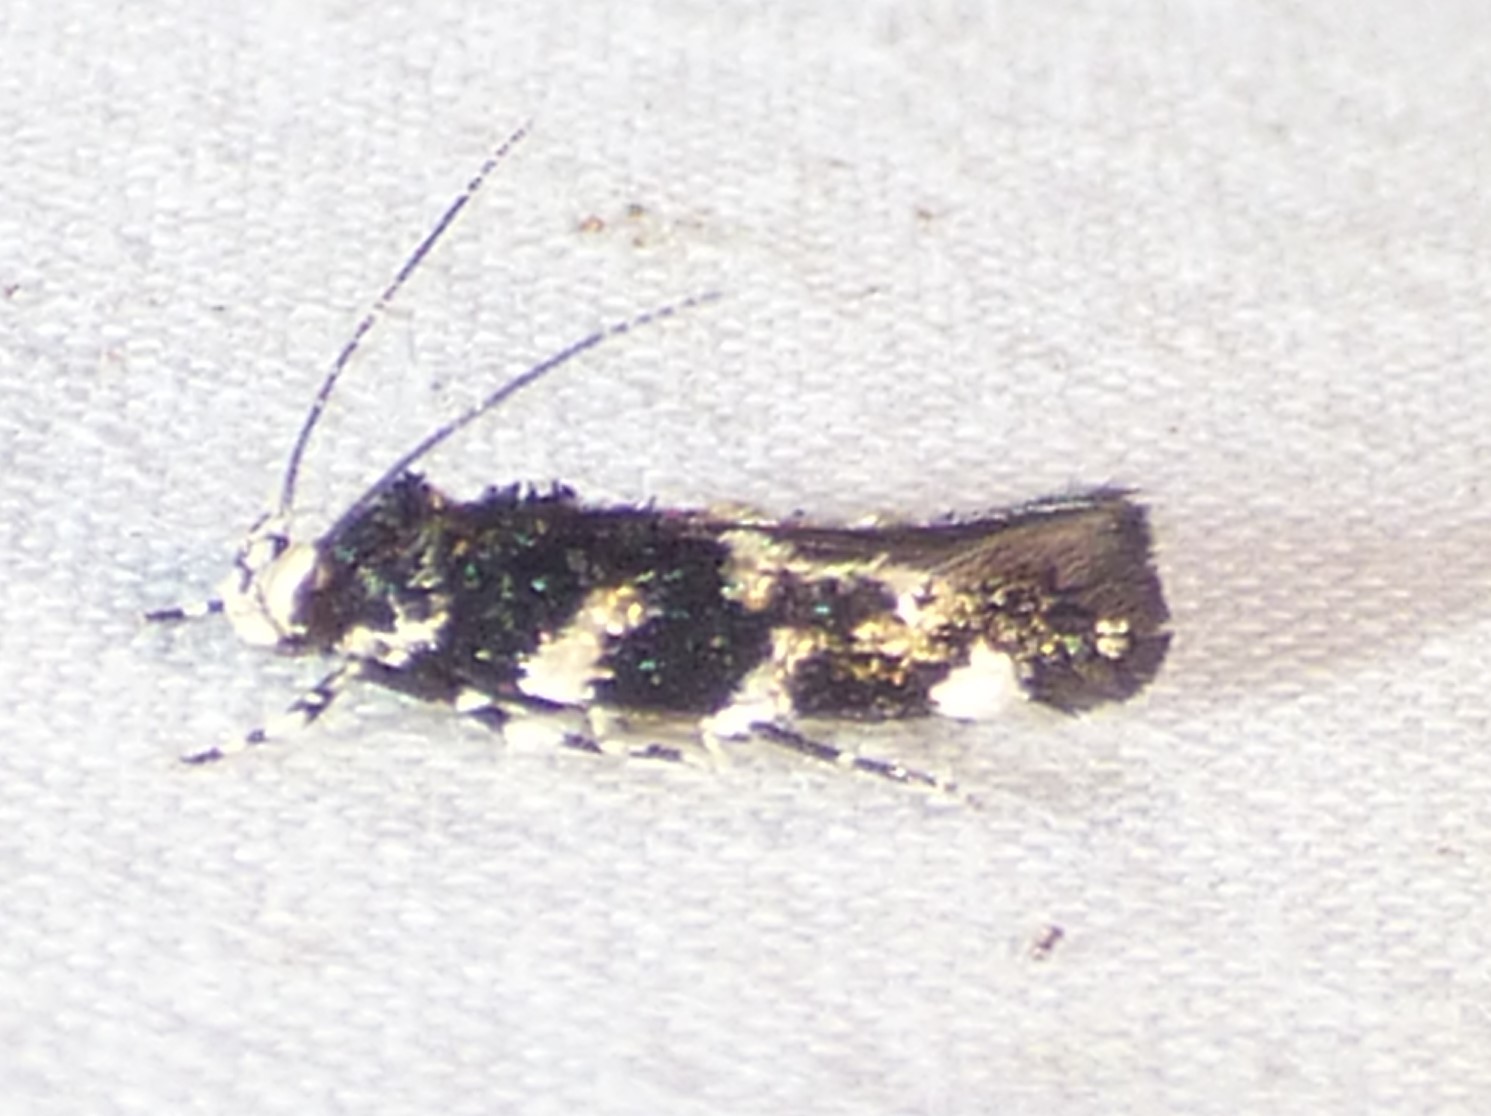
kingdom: Animalia
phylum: Arthropoda
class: Insecta
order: Lepidoptera
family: Cosmopterigidae
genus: Eteobalea
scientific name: Eteobalea
